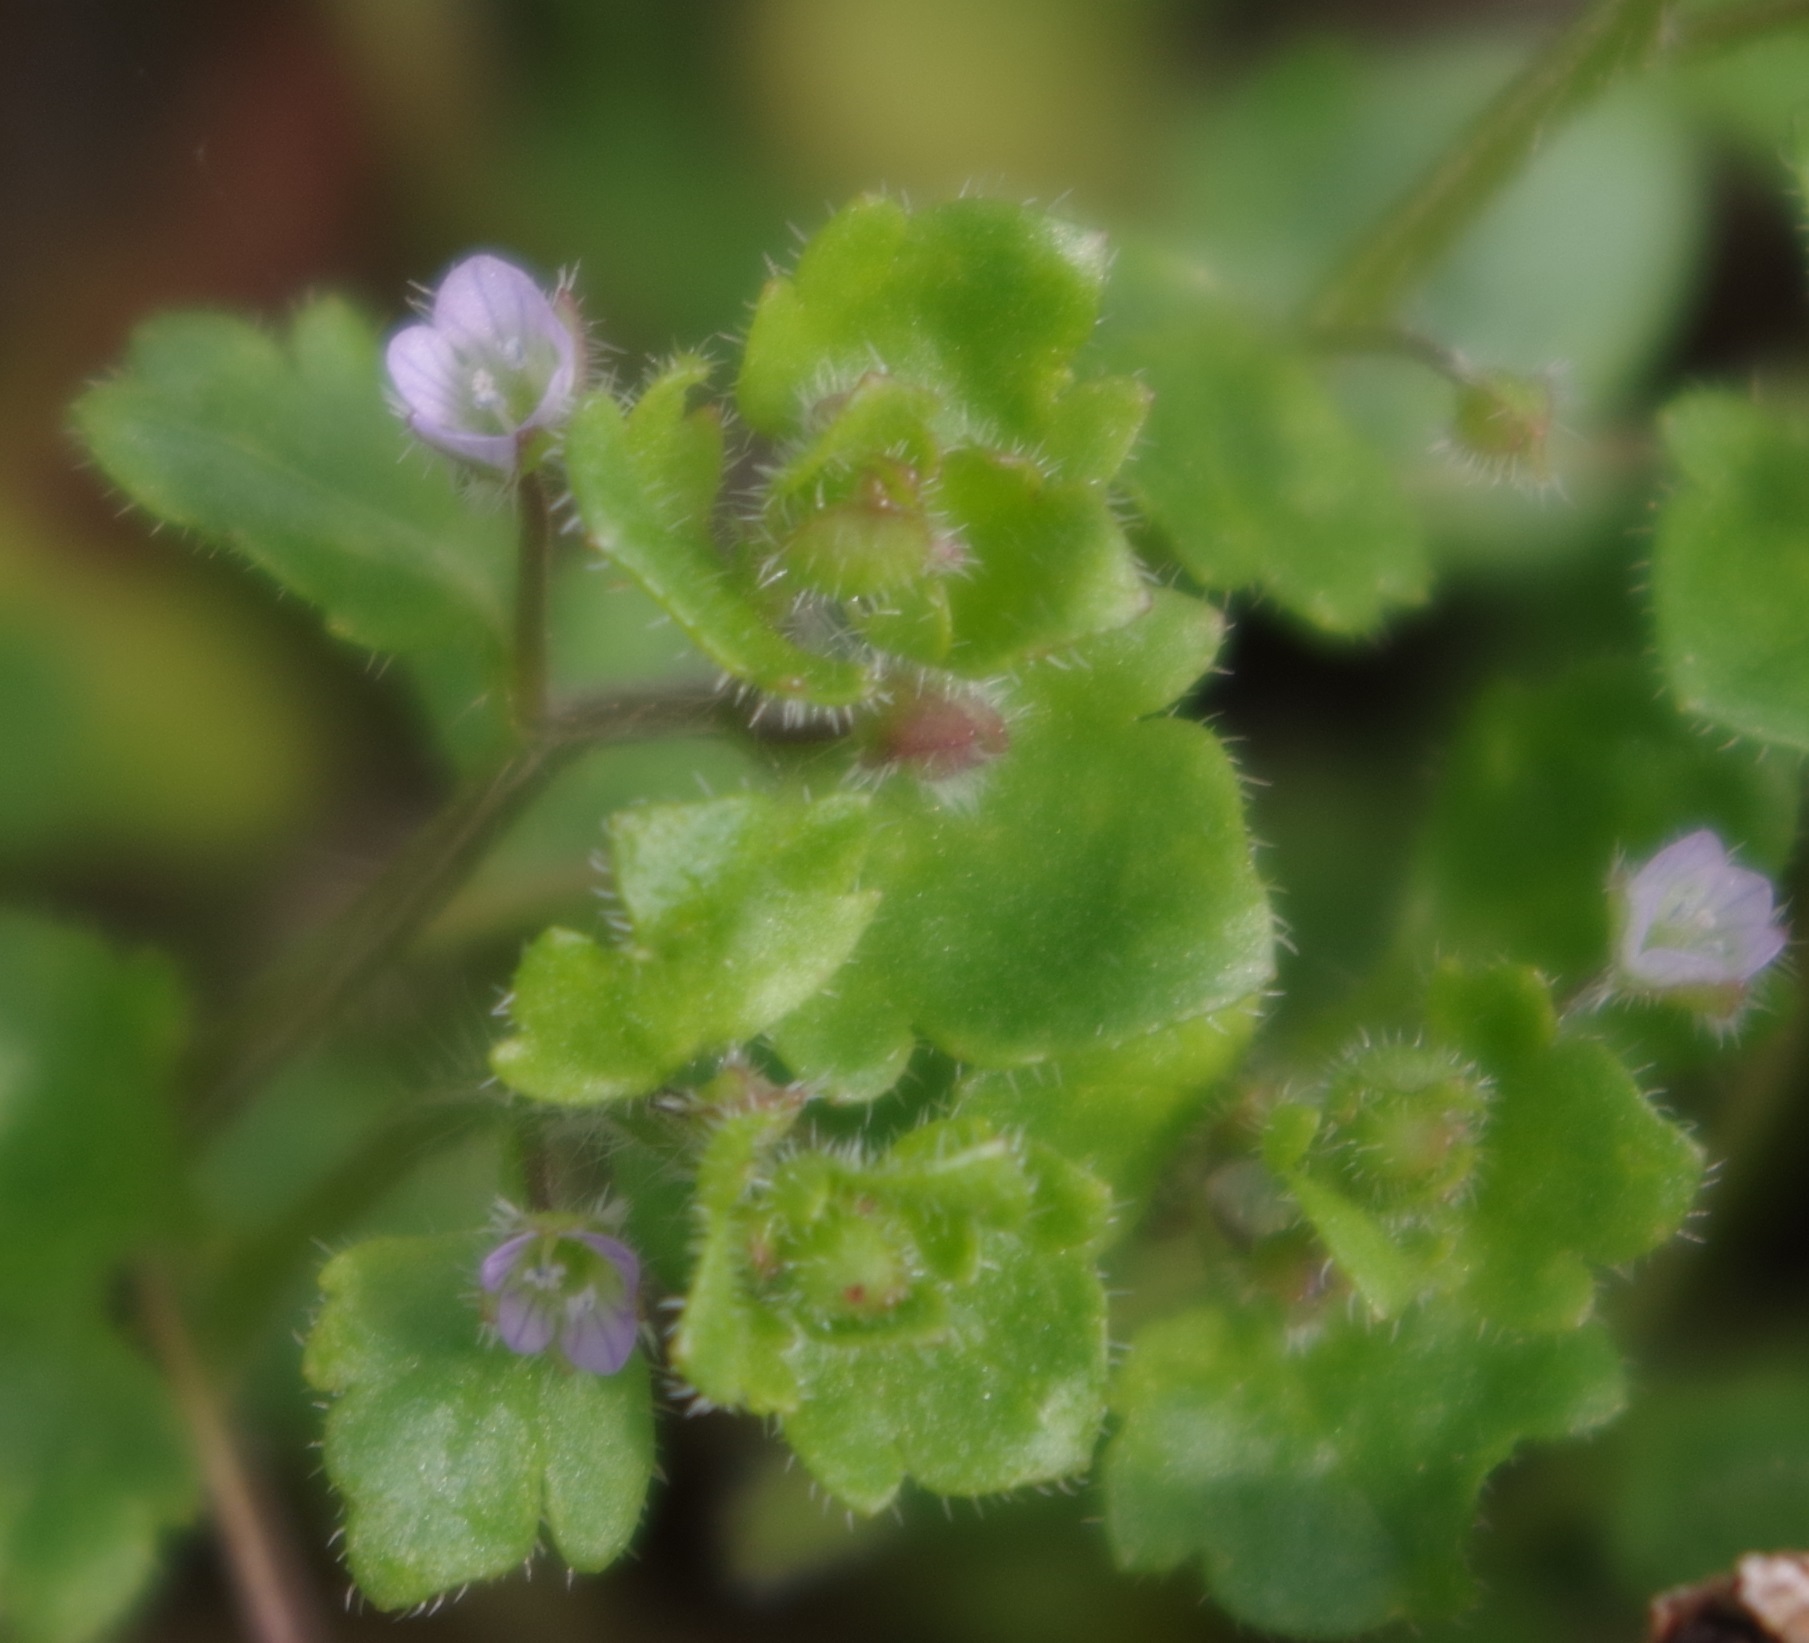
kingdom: Plantae
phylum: Tracheophyta
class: Magnoliopsida
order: Lamiales
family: Plantaginaceae
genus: Veronica
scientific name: Veronica sublobata
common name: False ivy-leaved speedwell
